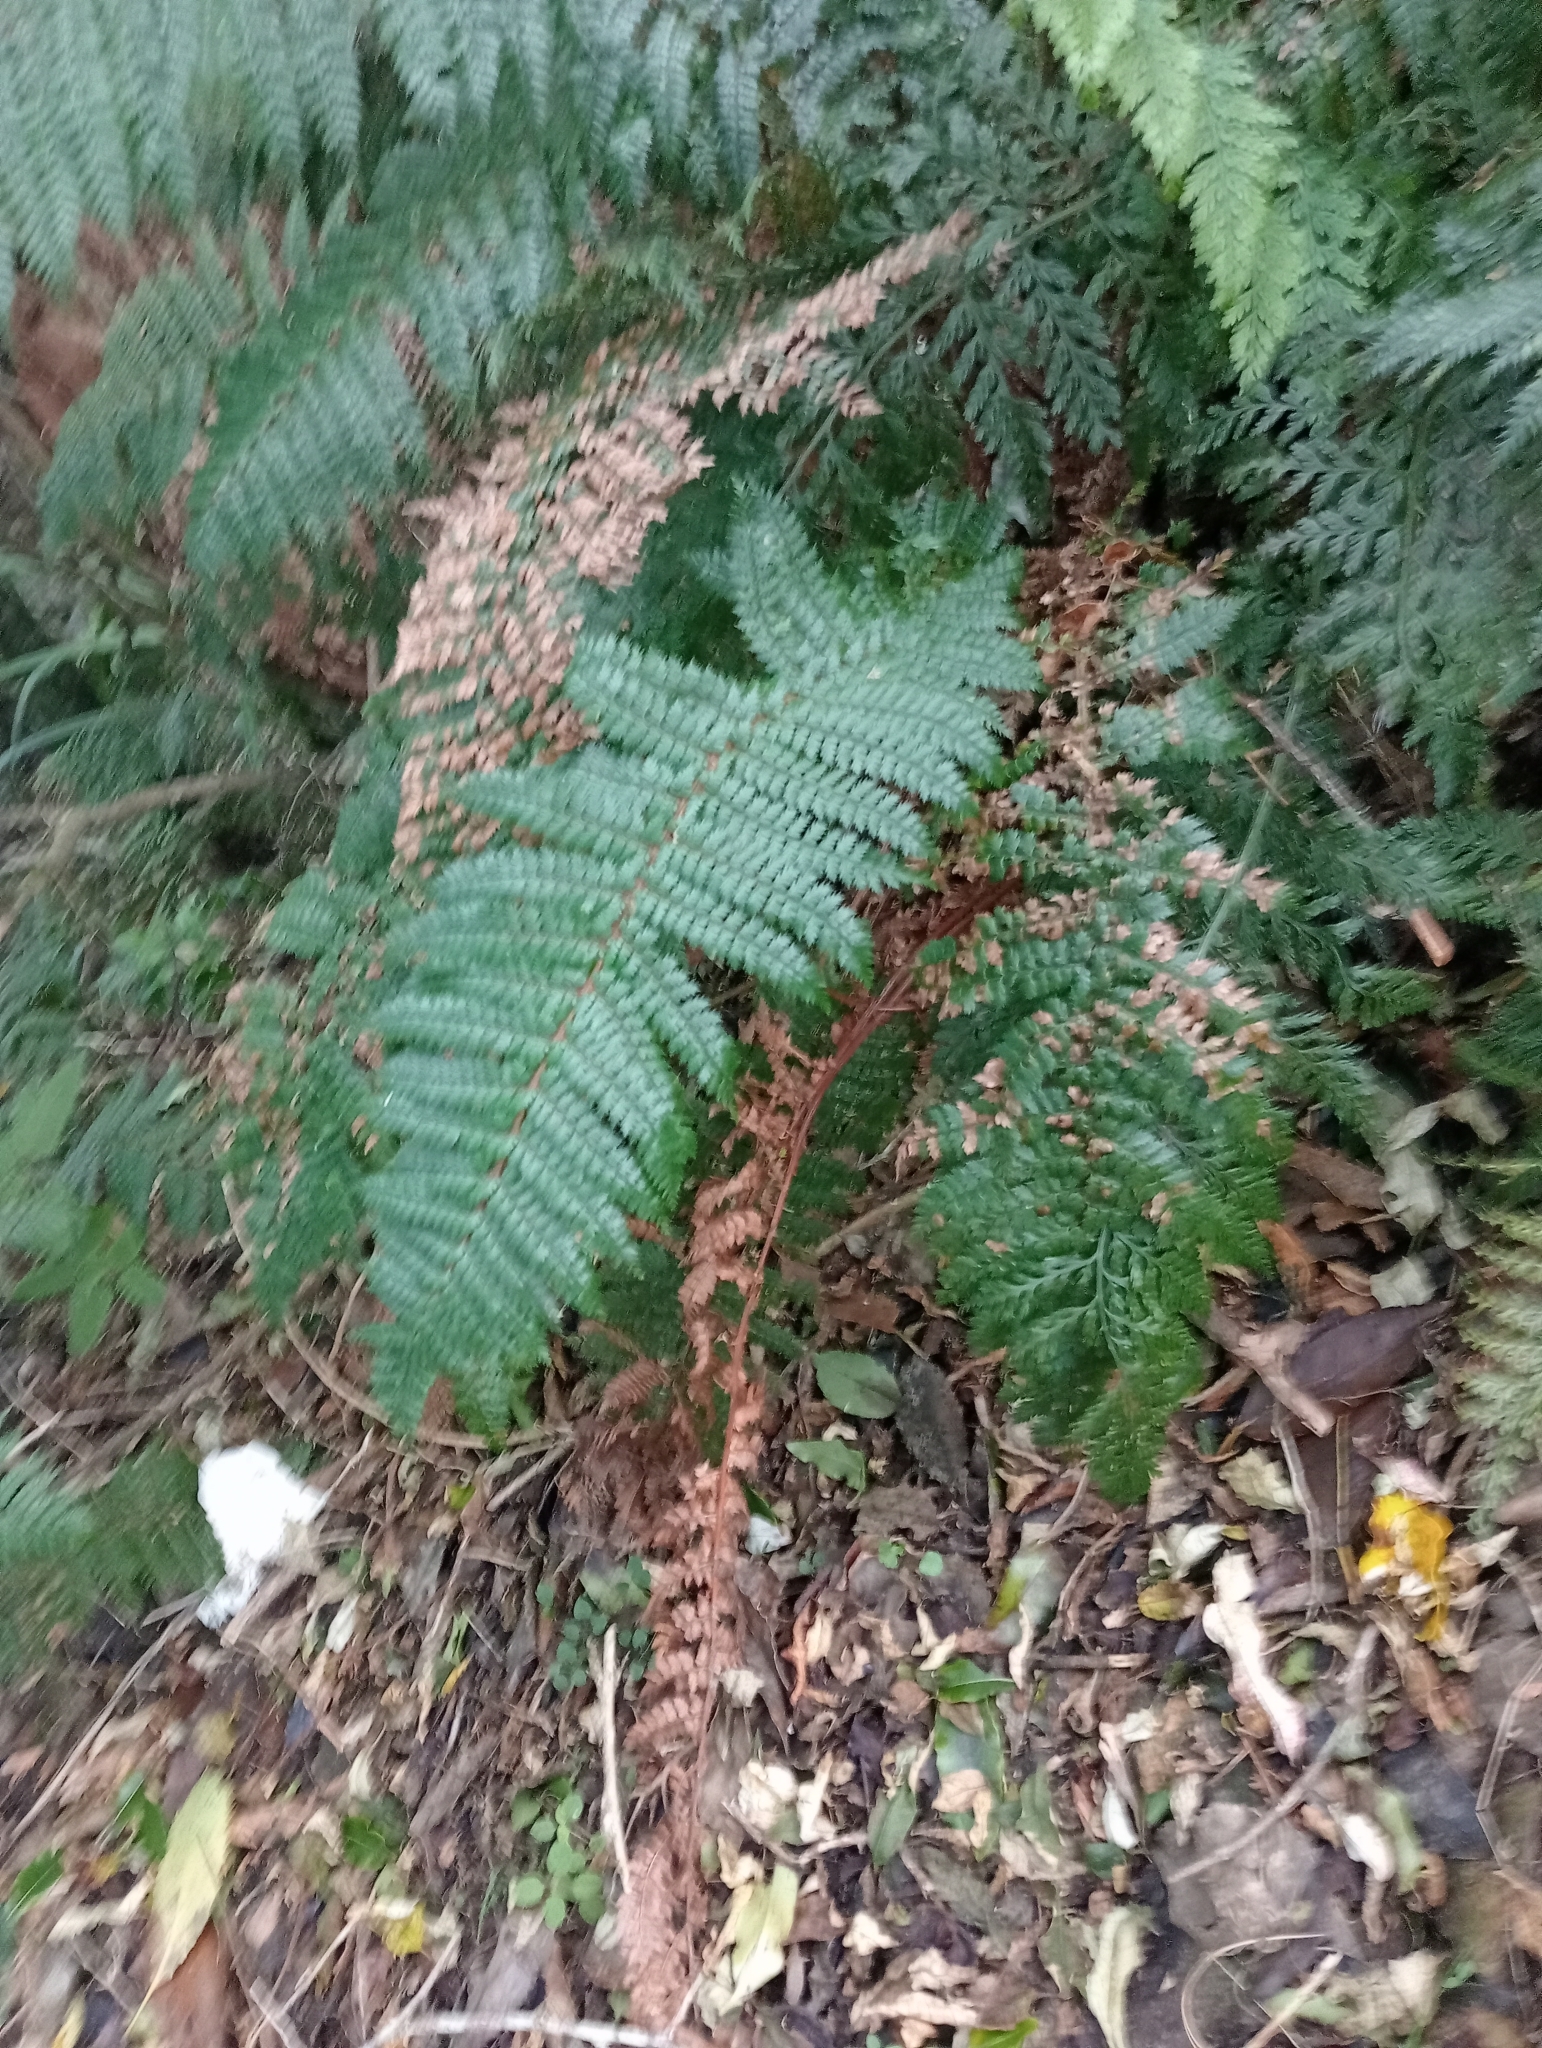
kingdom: Plantae
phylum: Tracheophyta
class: Polypodiopsida
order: Polypodiales
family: Dryopteridaceae
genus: Polystichum
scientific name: Polystichum vestitum
